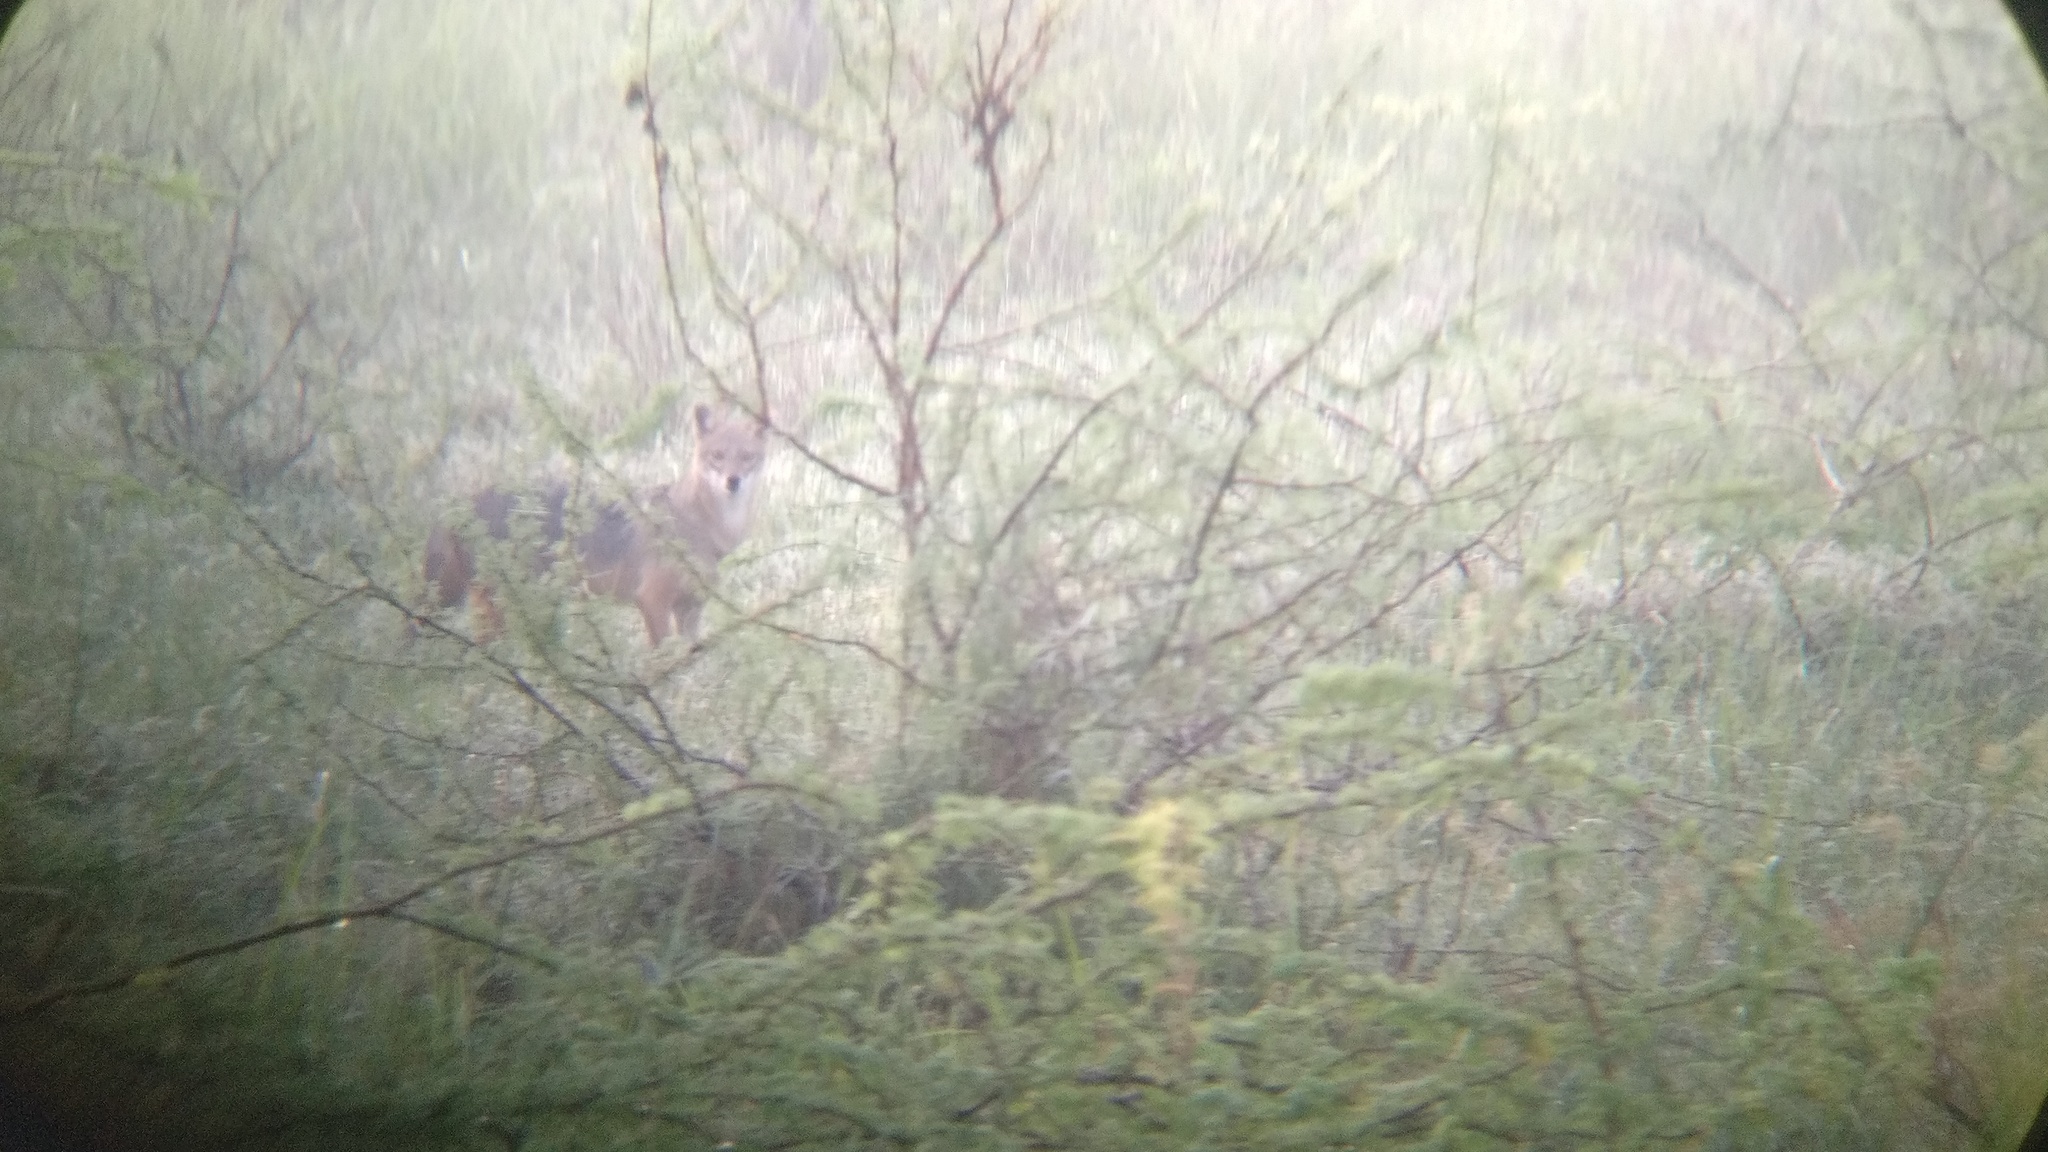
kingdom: Animalia
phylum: Chordata
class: Mammalia
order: Carnivora
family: Canidae
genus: Canis
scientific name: Canis aureus
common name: Golden jackal
